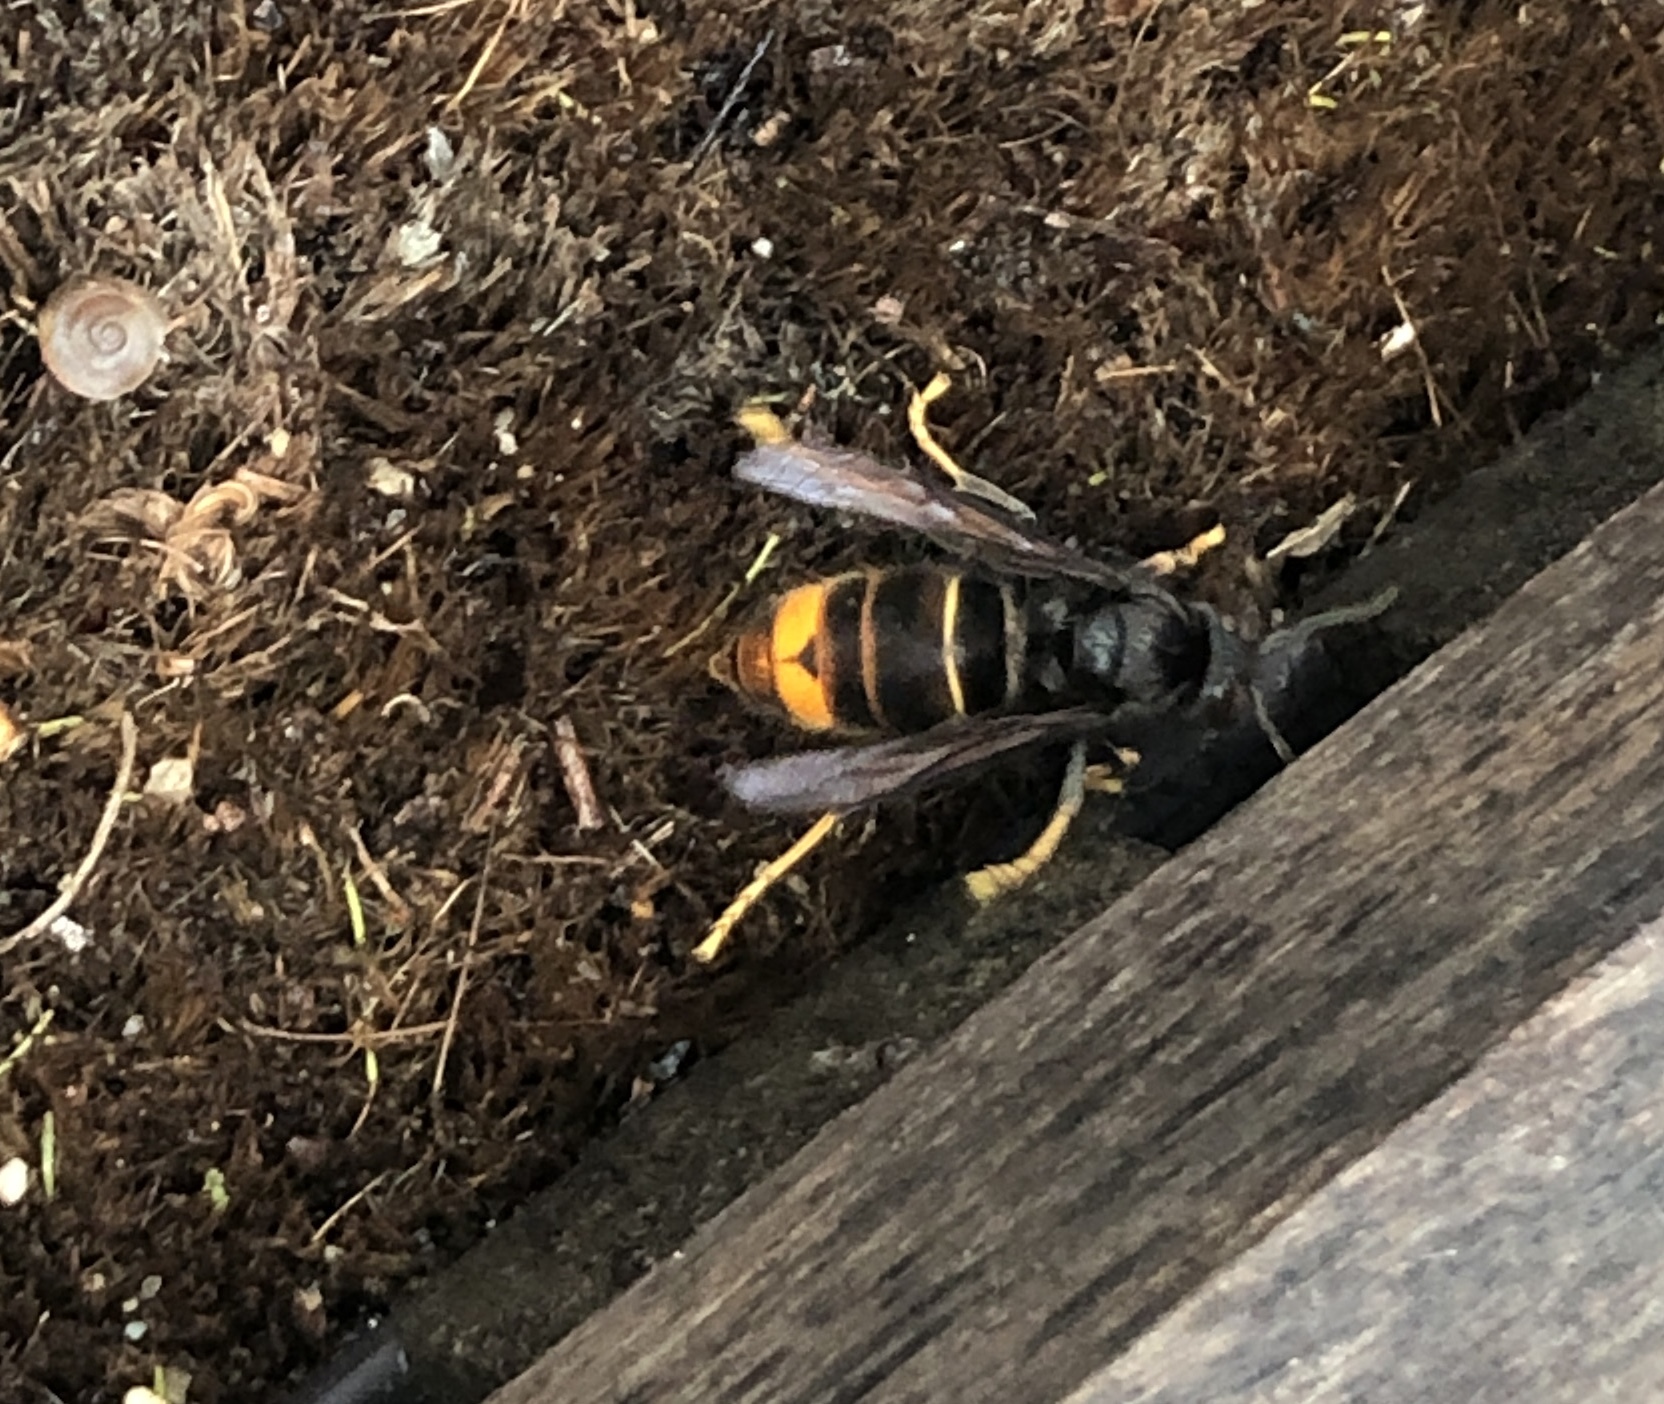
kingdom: Animalia
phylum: Arthropoda
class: Insecta
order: Hymenoptera
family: Vespidae
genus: Vespa
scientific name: Vespa velutina
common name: Asian hornet
